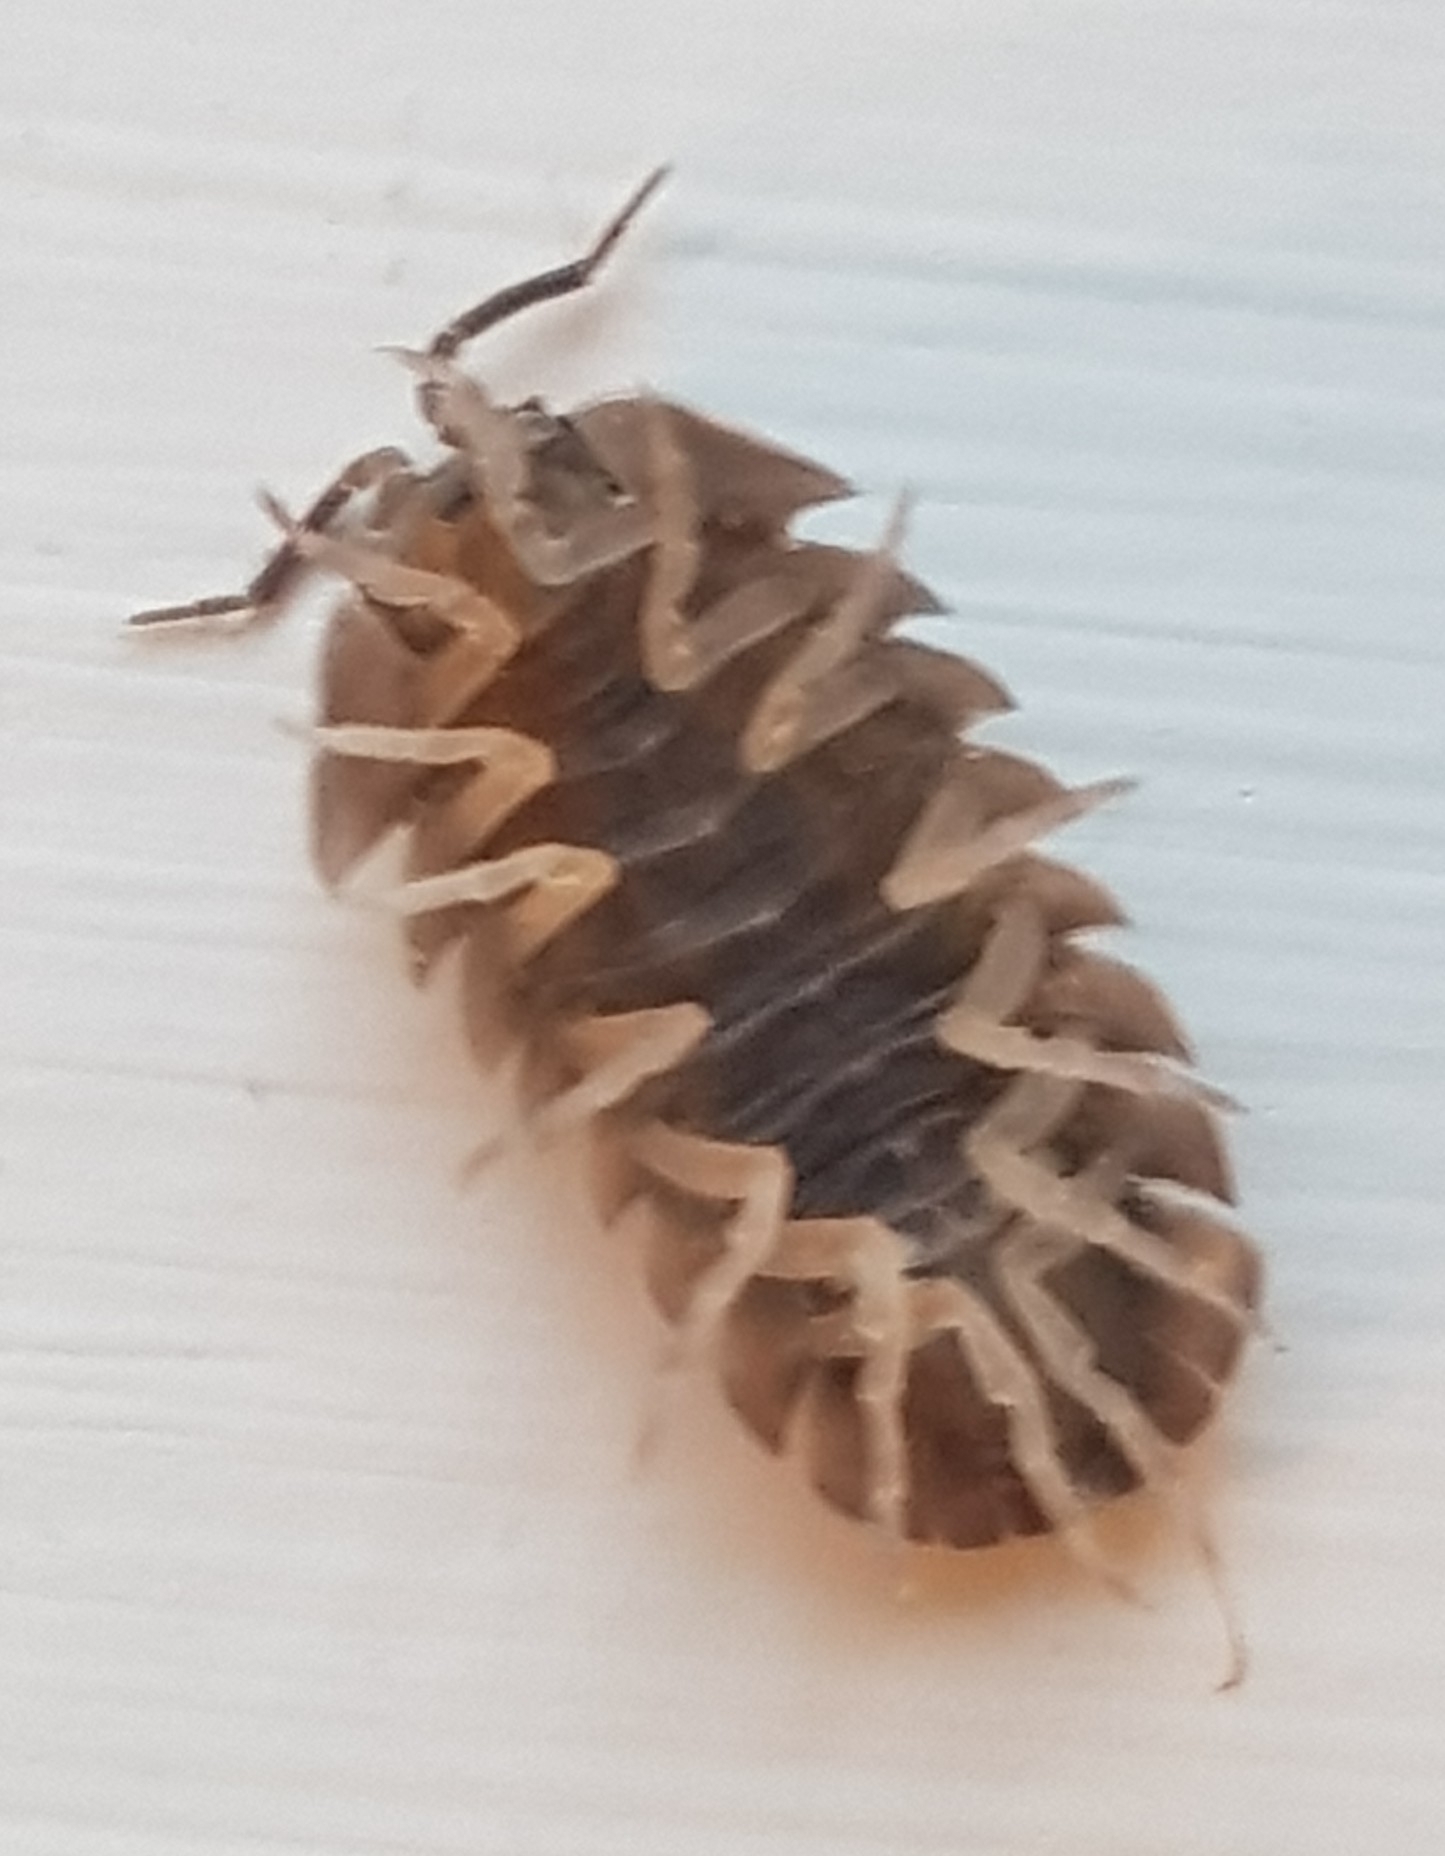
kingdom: Animalia
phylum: Arthropoda
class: Malacostraca
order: Isopoda
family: Armadillidiidae
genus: Armadillidium
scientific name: Armadillidium depressum
